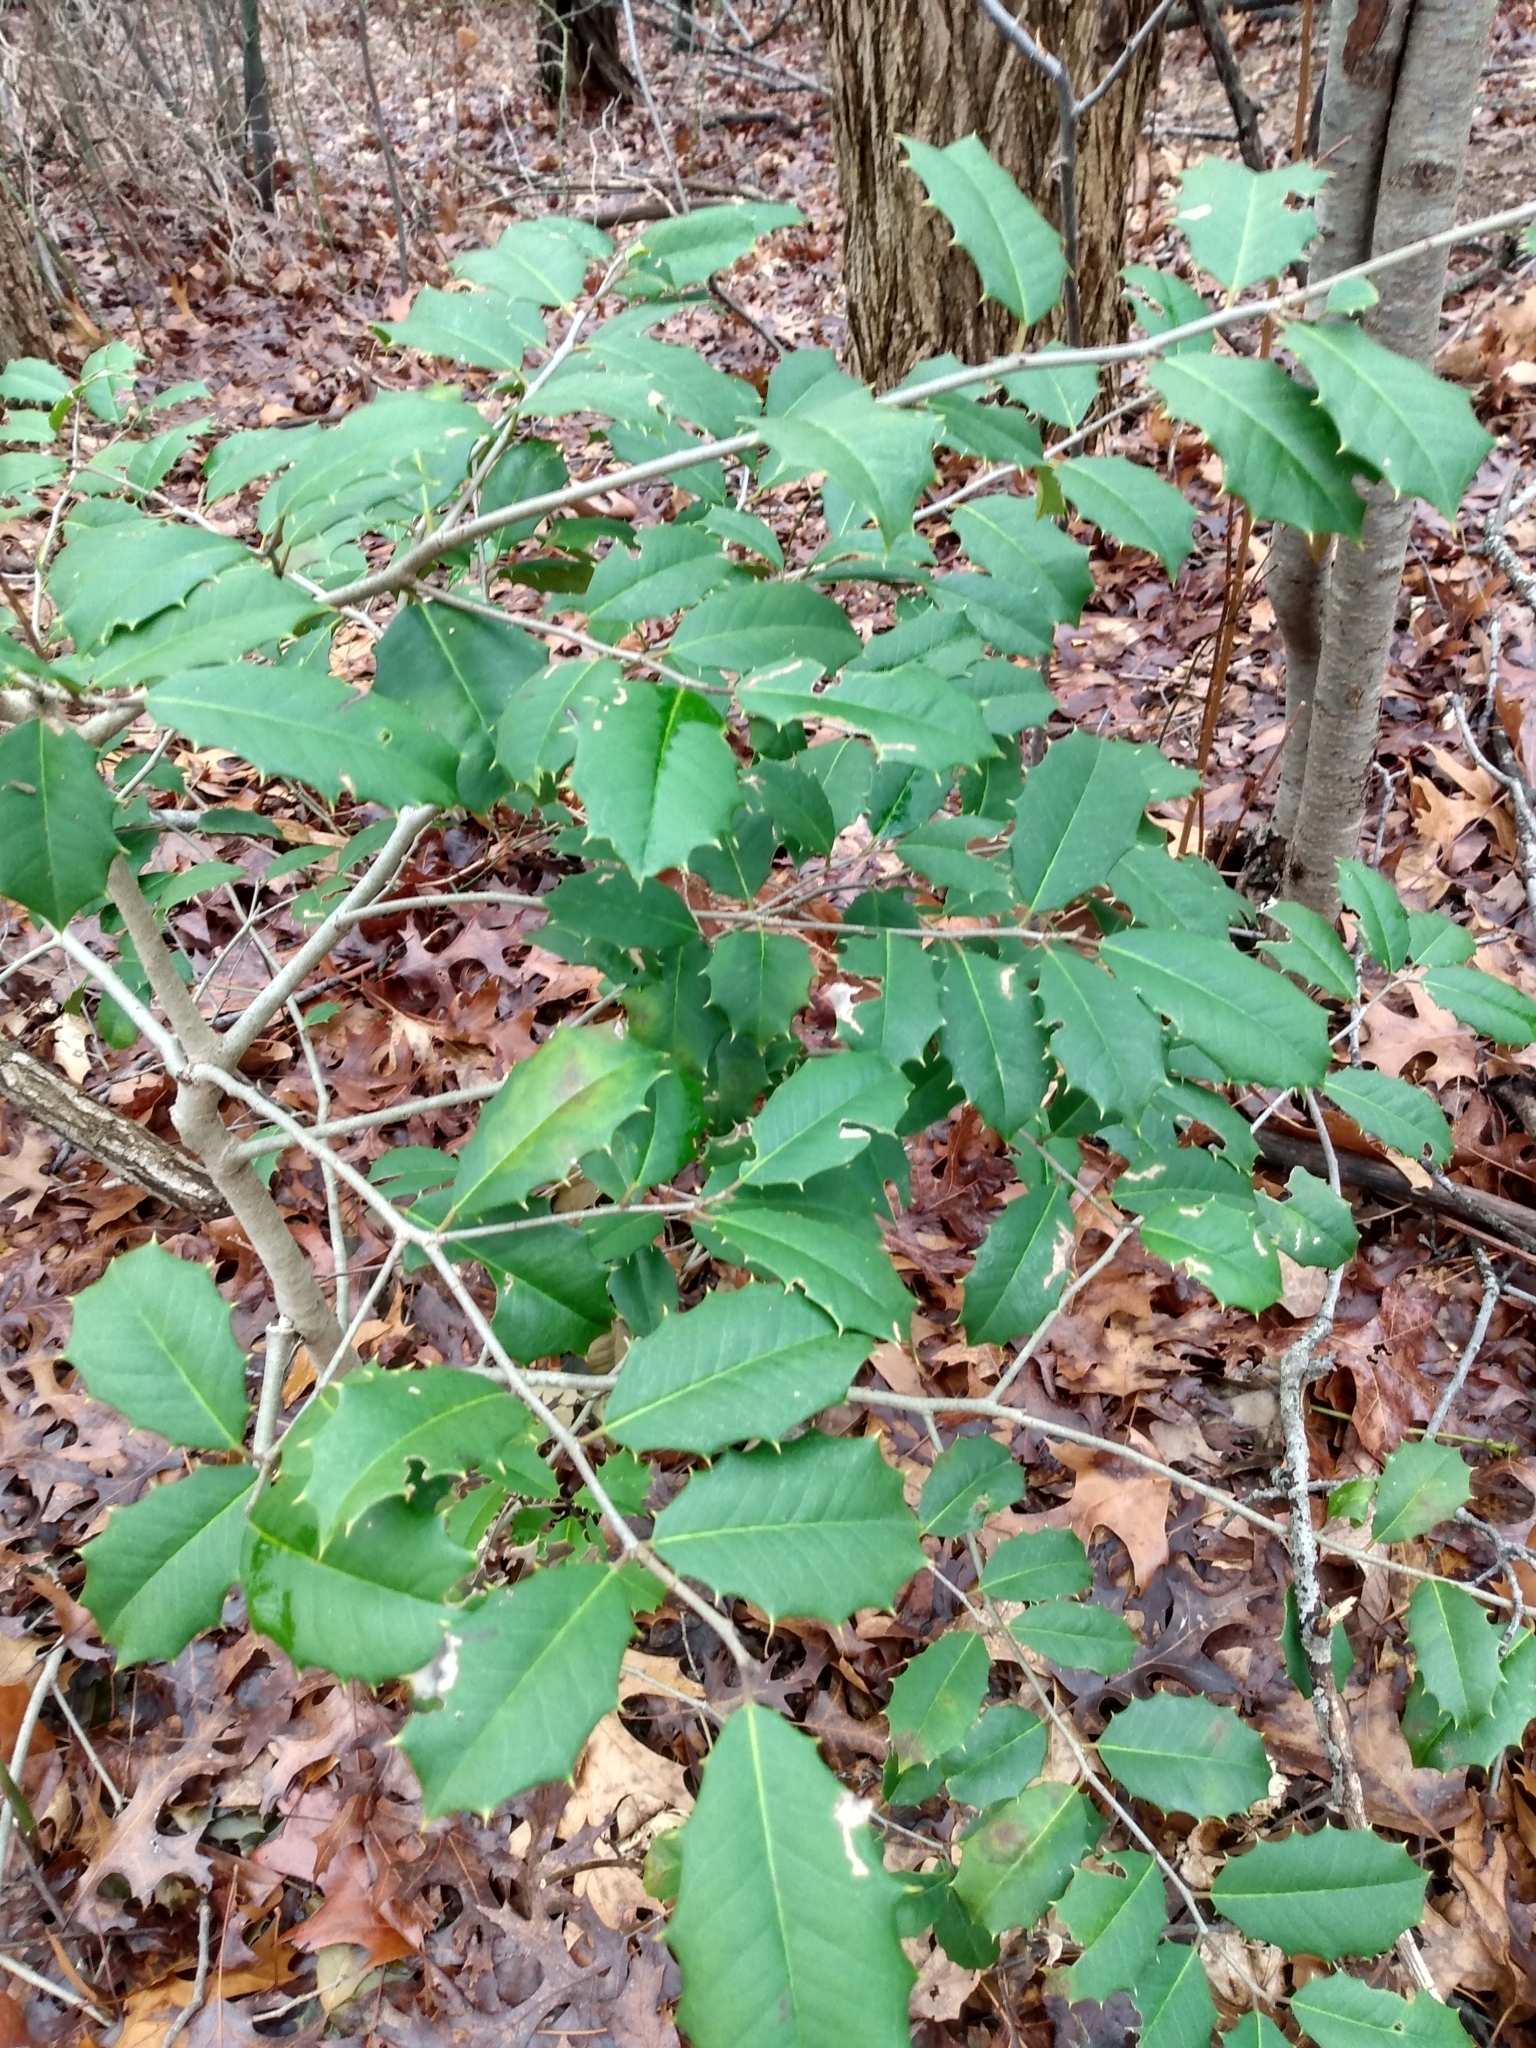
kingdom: Plantae
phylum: Tracheophyta
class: Magnoliopsida
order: Aquifoliales
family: Aquifoliaceae
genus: Ilex
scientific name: Ilex opaca
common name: American holly
